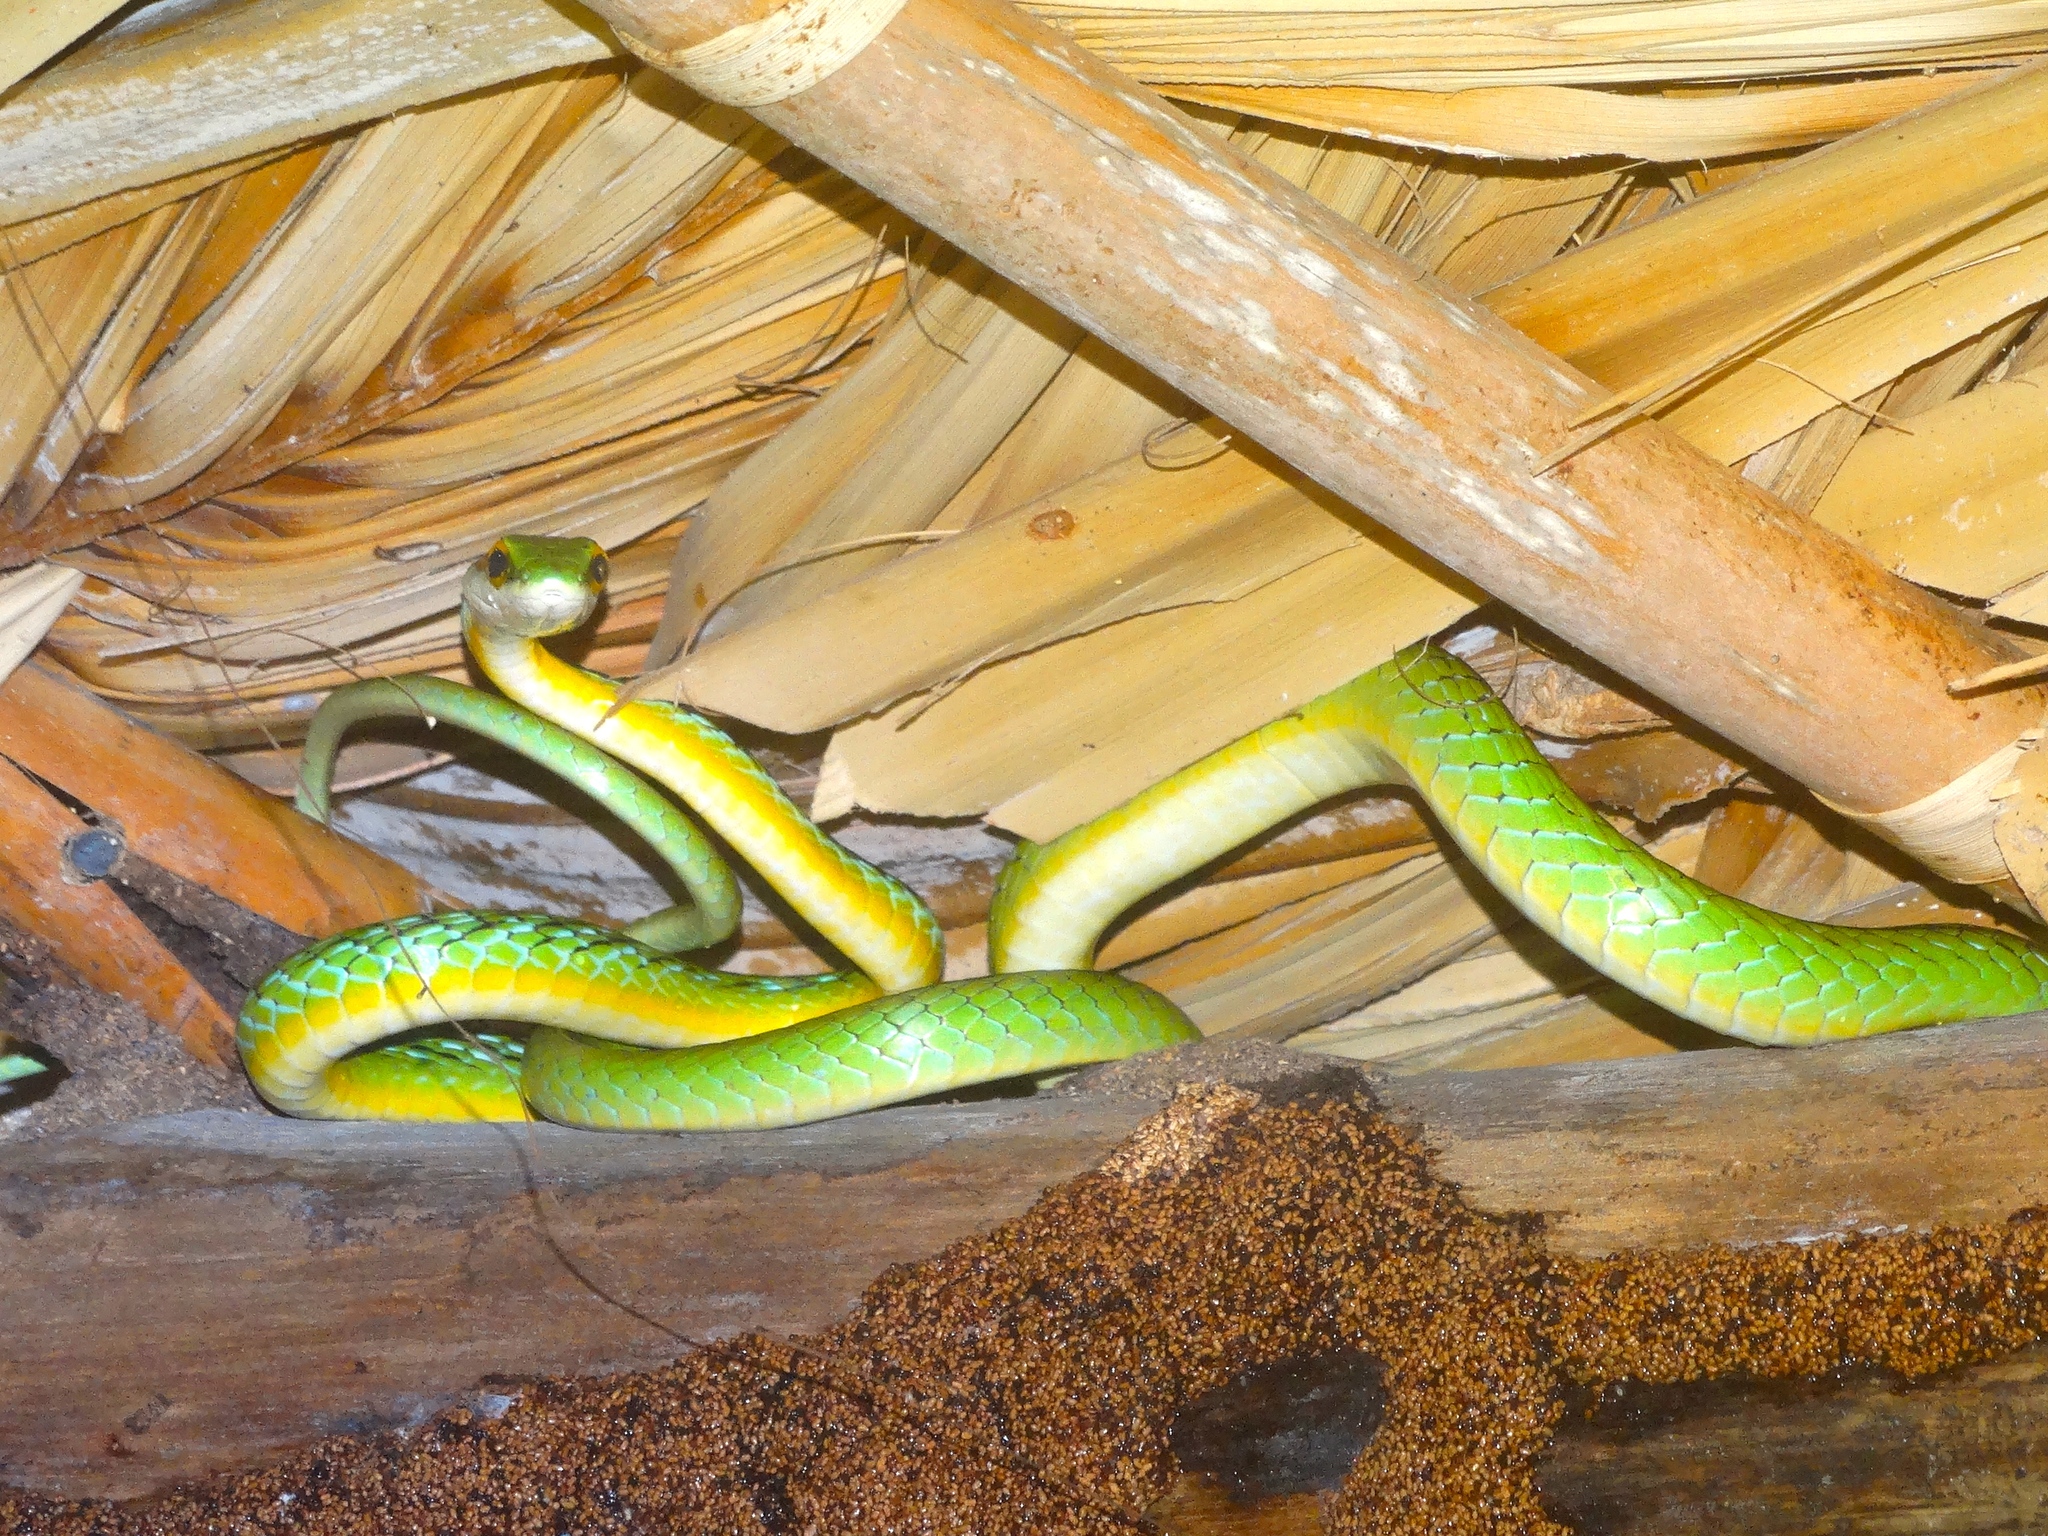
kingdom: Animalia
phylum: Chordata
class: Squamata
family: Colubridae
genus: Leptophis
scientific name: Leptophis diplotropis
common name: Pacific coast parrot snake
